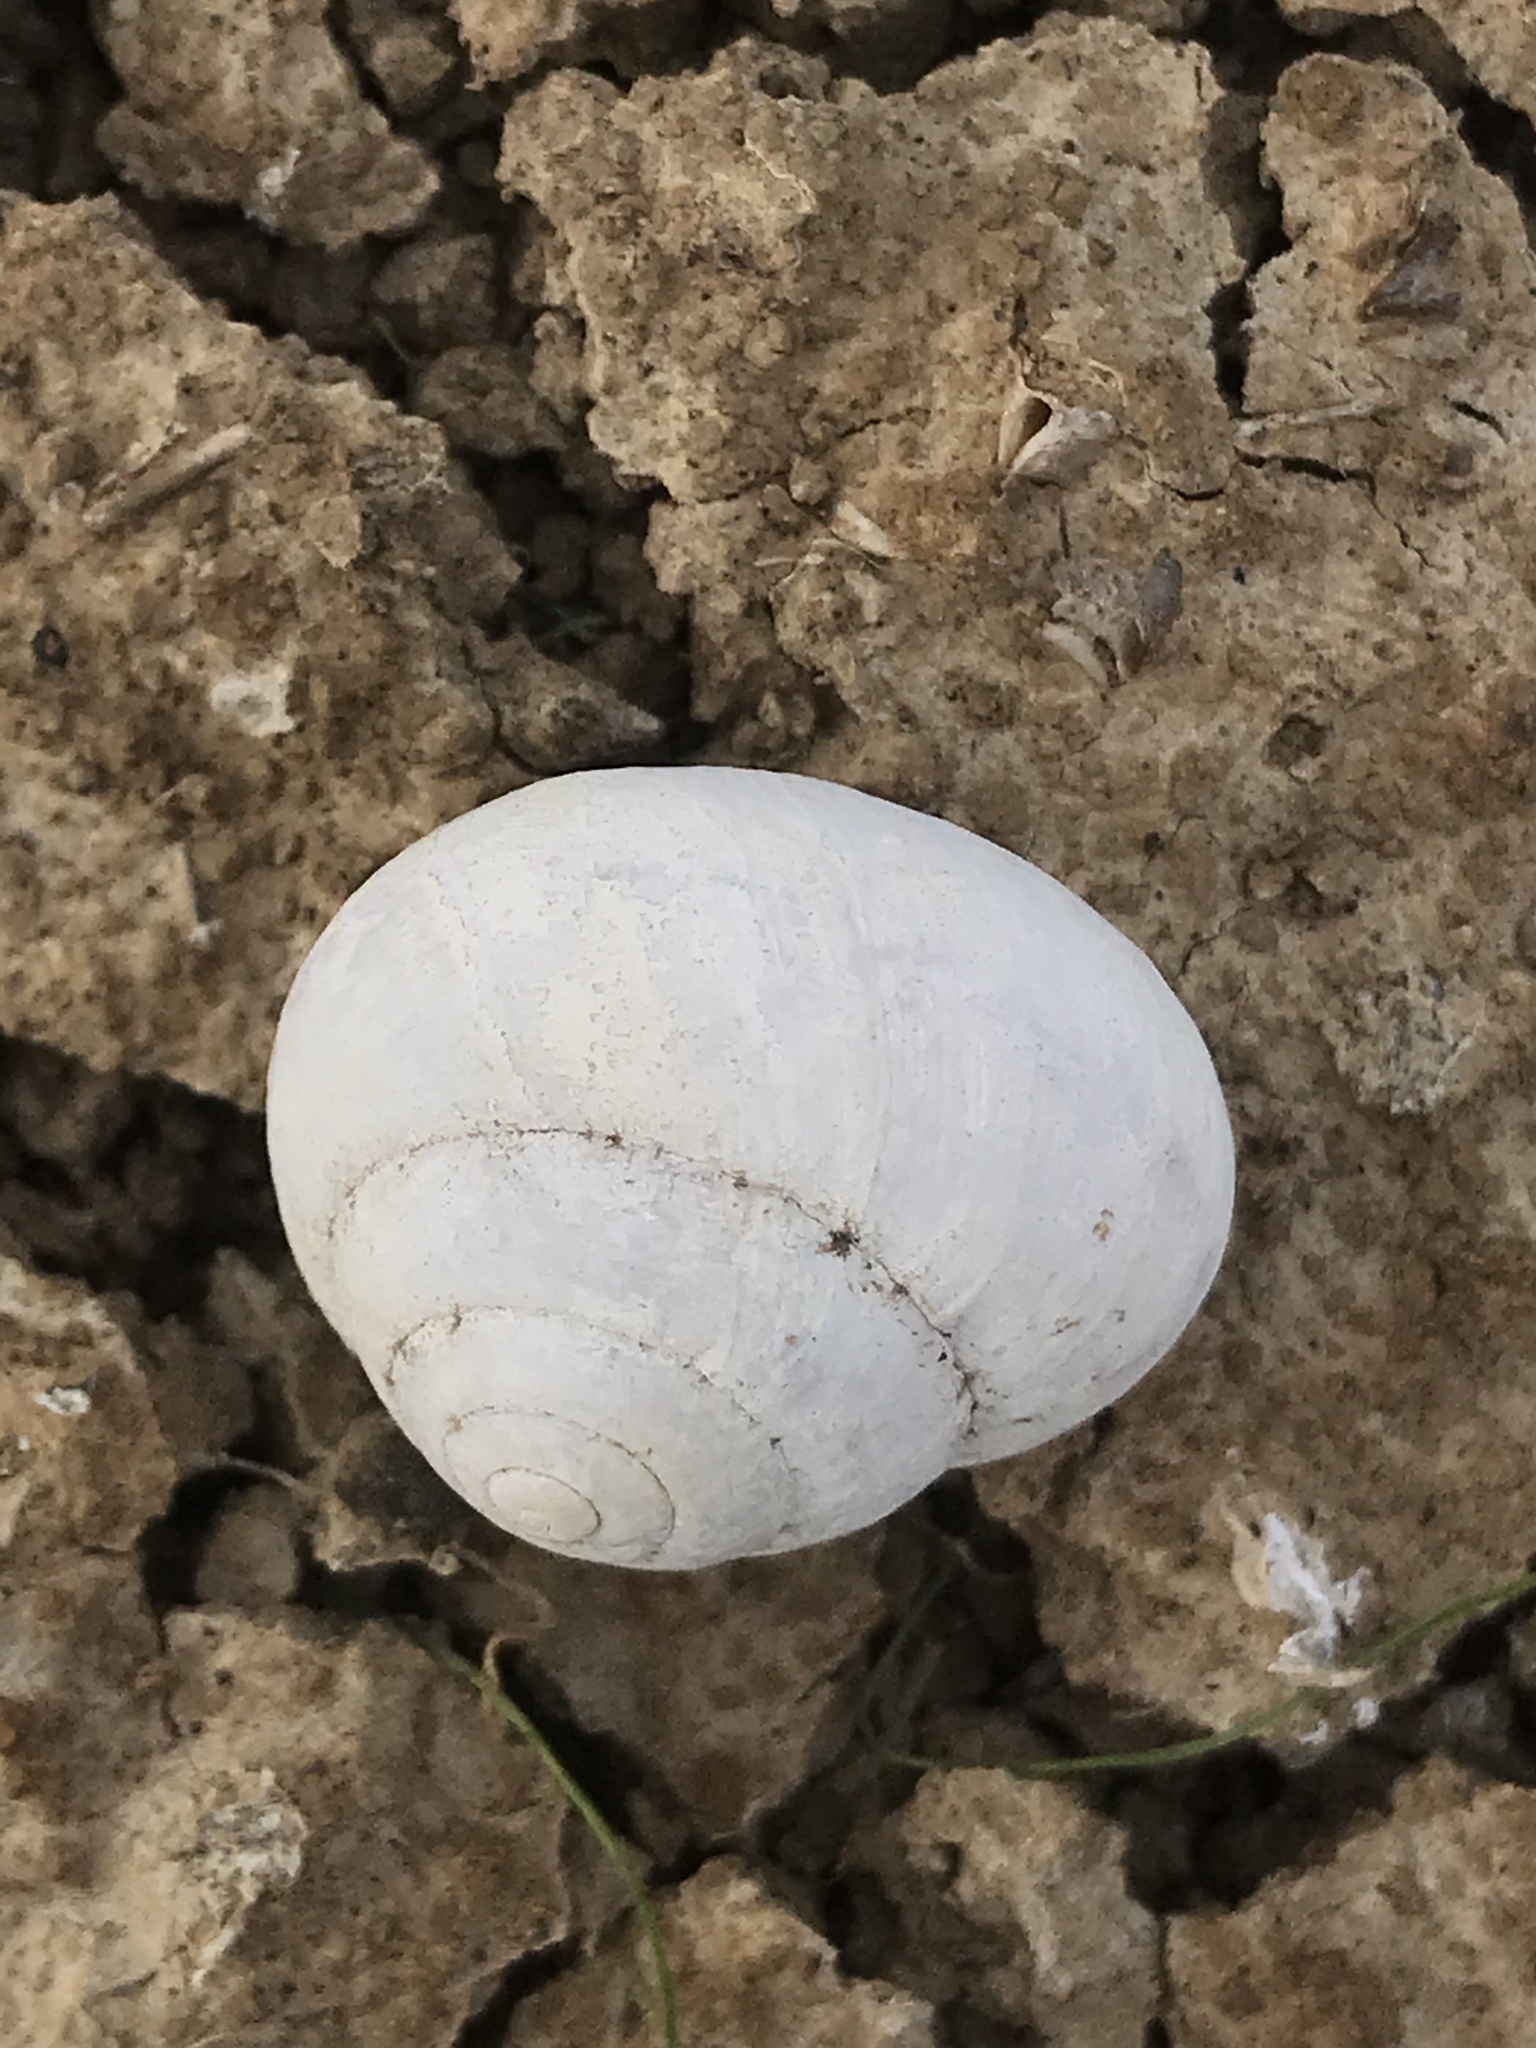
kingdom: Animalia
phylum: Mollusca
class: Gastropoda
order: Stylommatophora
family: Xanthonychidae
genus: Xerarionta
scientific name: Xerarionta tryoni
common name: Bicolor cactus snail
